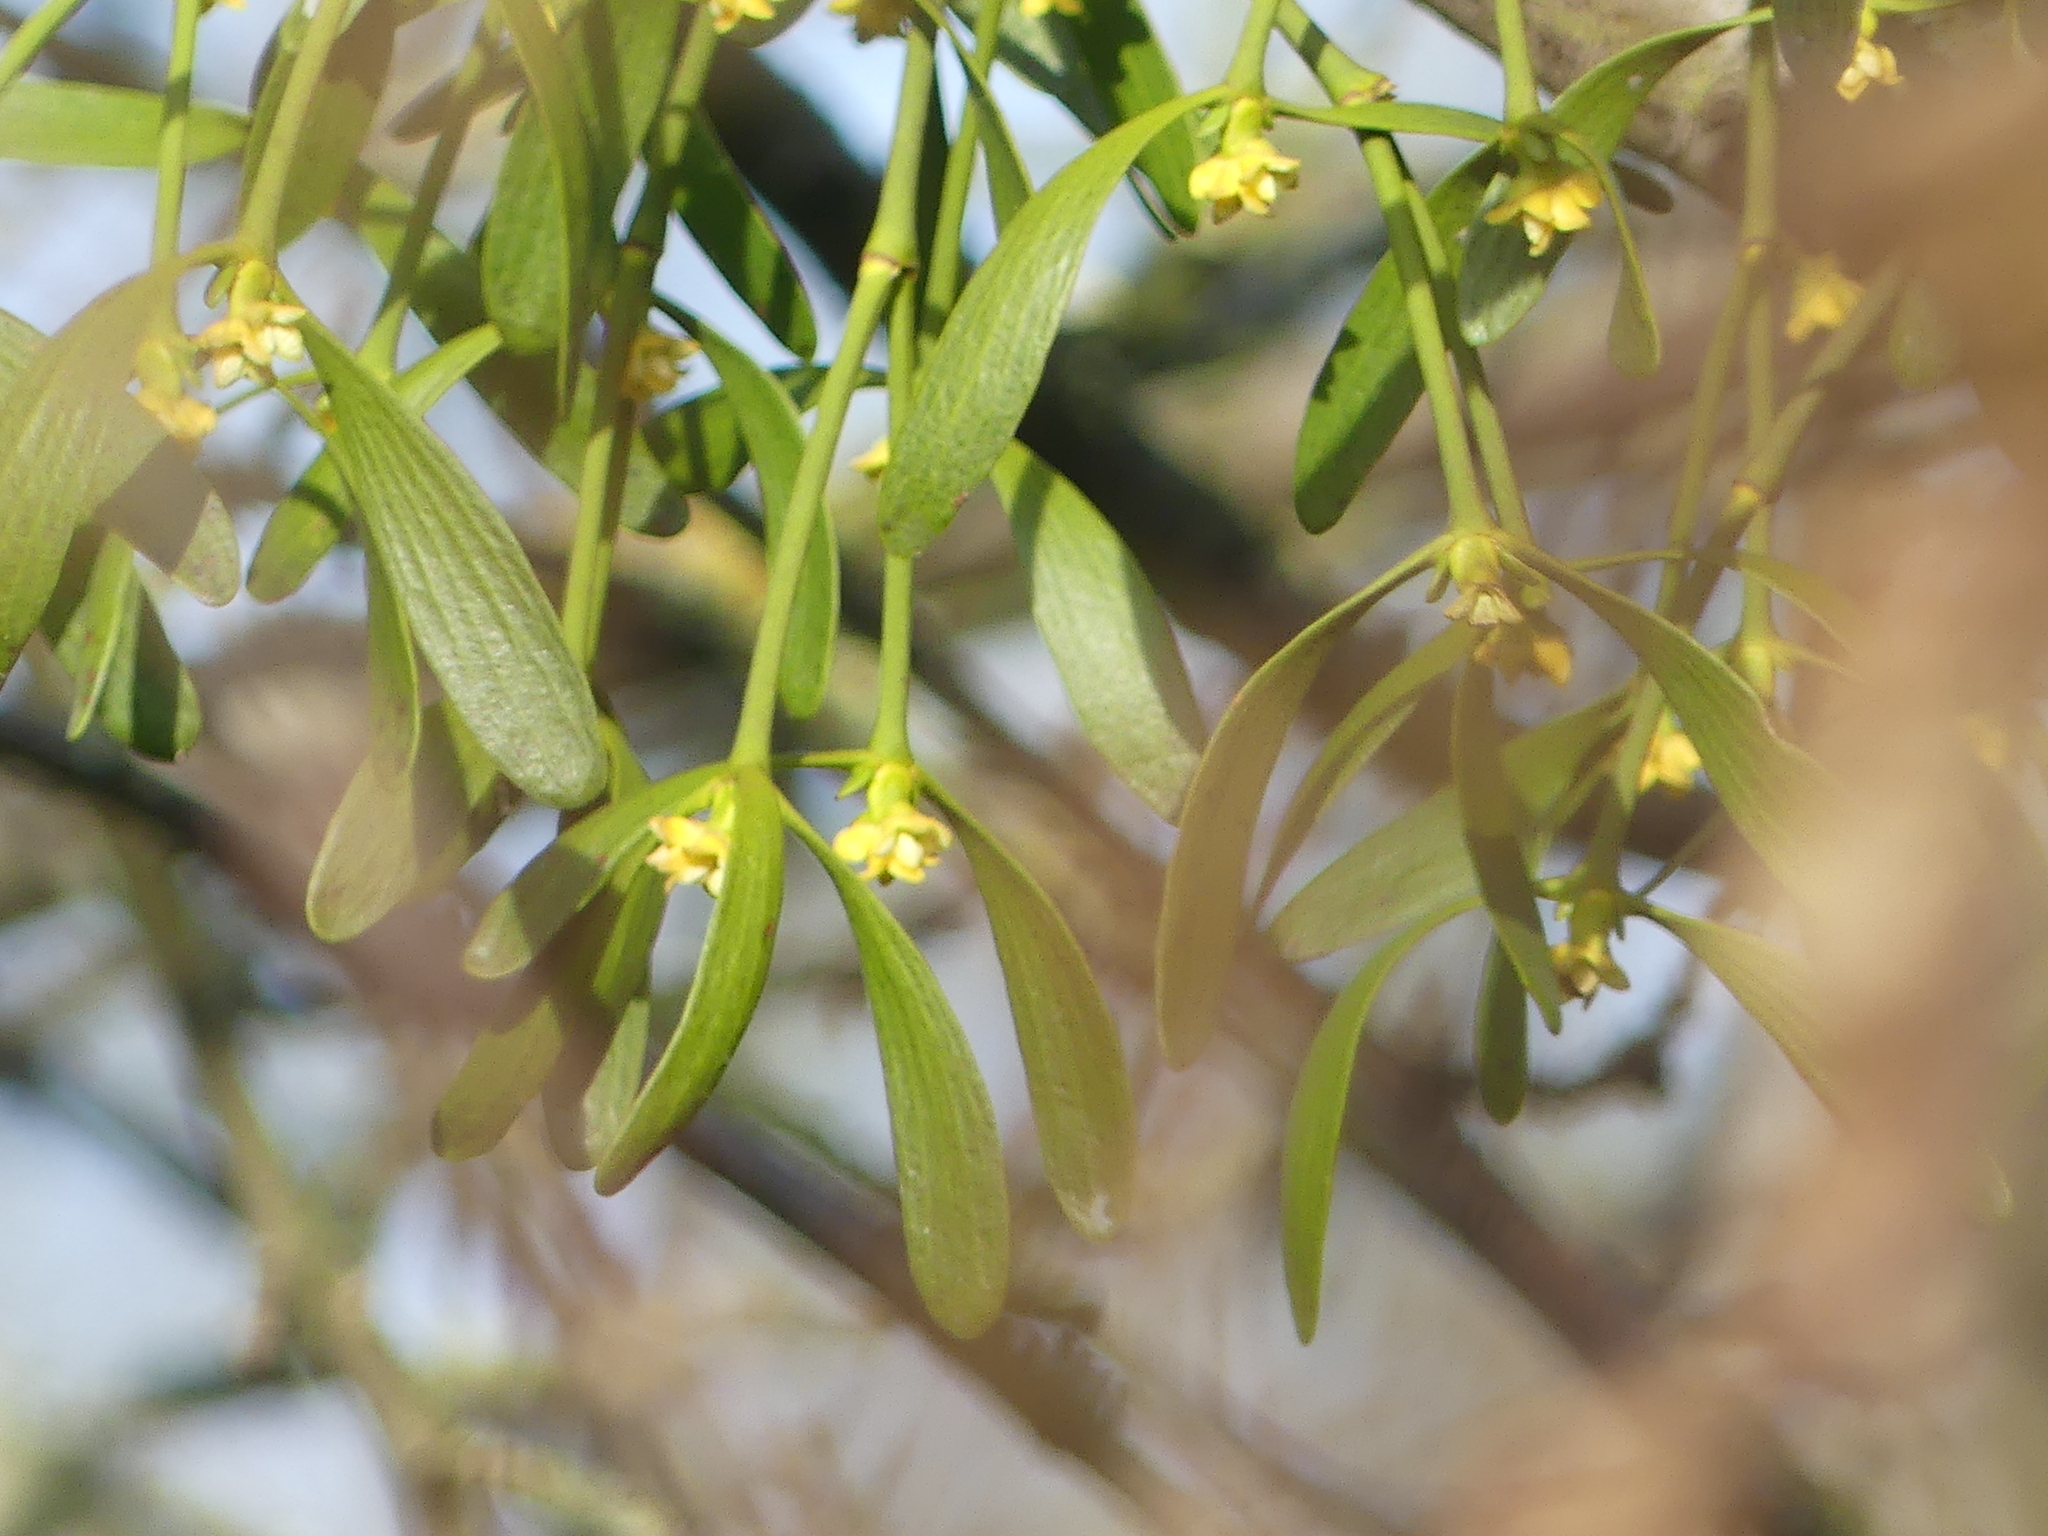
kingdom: Plantae
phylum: Tracheophyta
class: Magnoliopsida
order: Santalales
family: Viscaceae
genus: Viscum
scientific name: Viscum album
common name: Mistletoe
